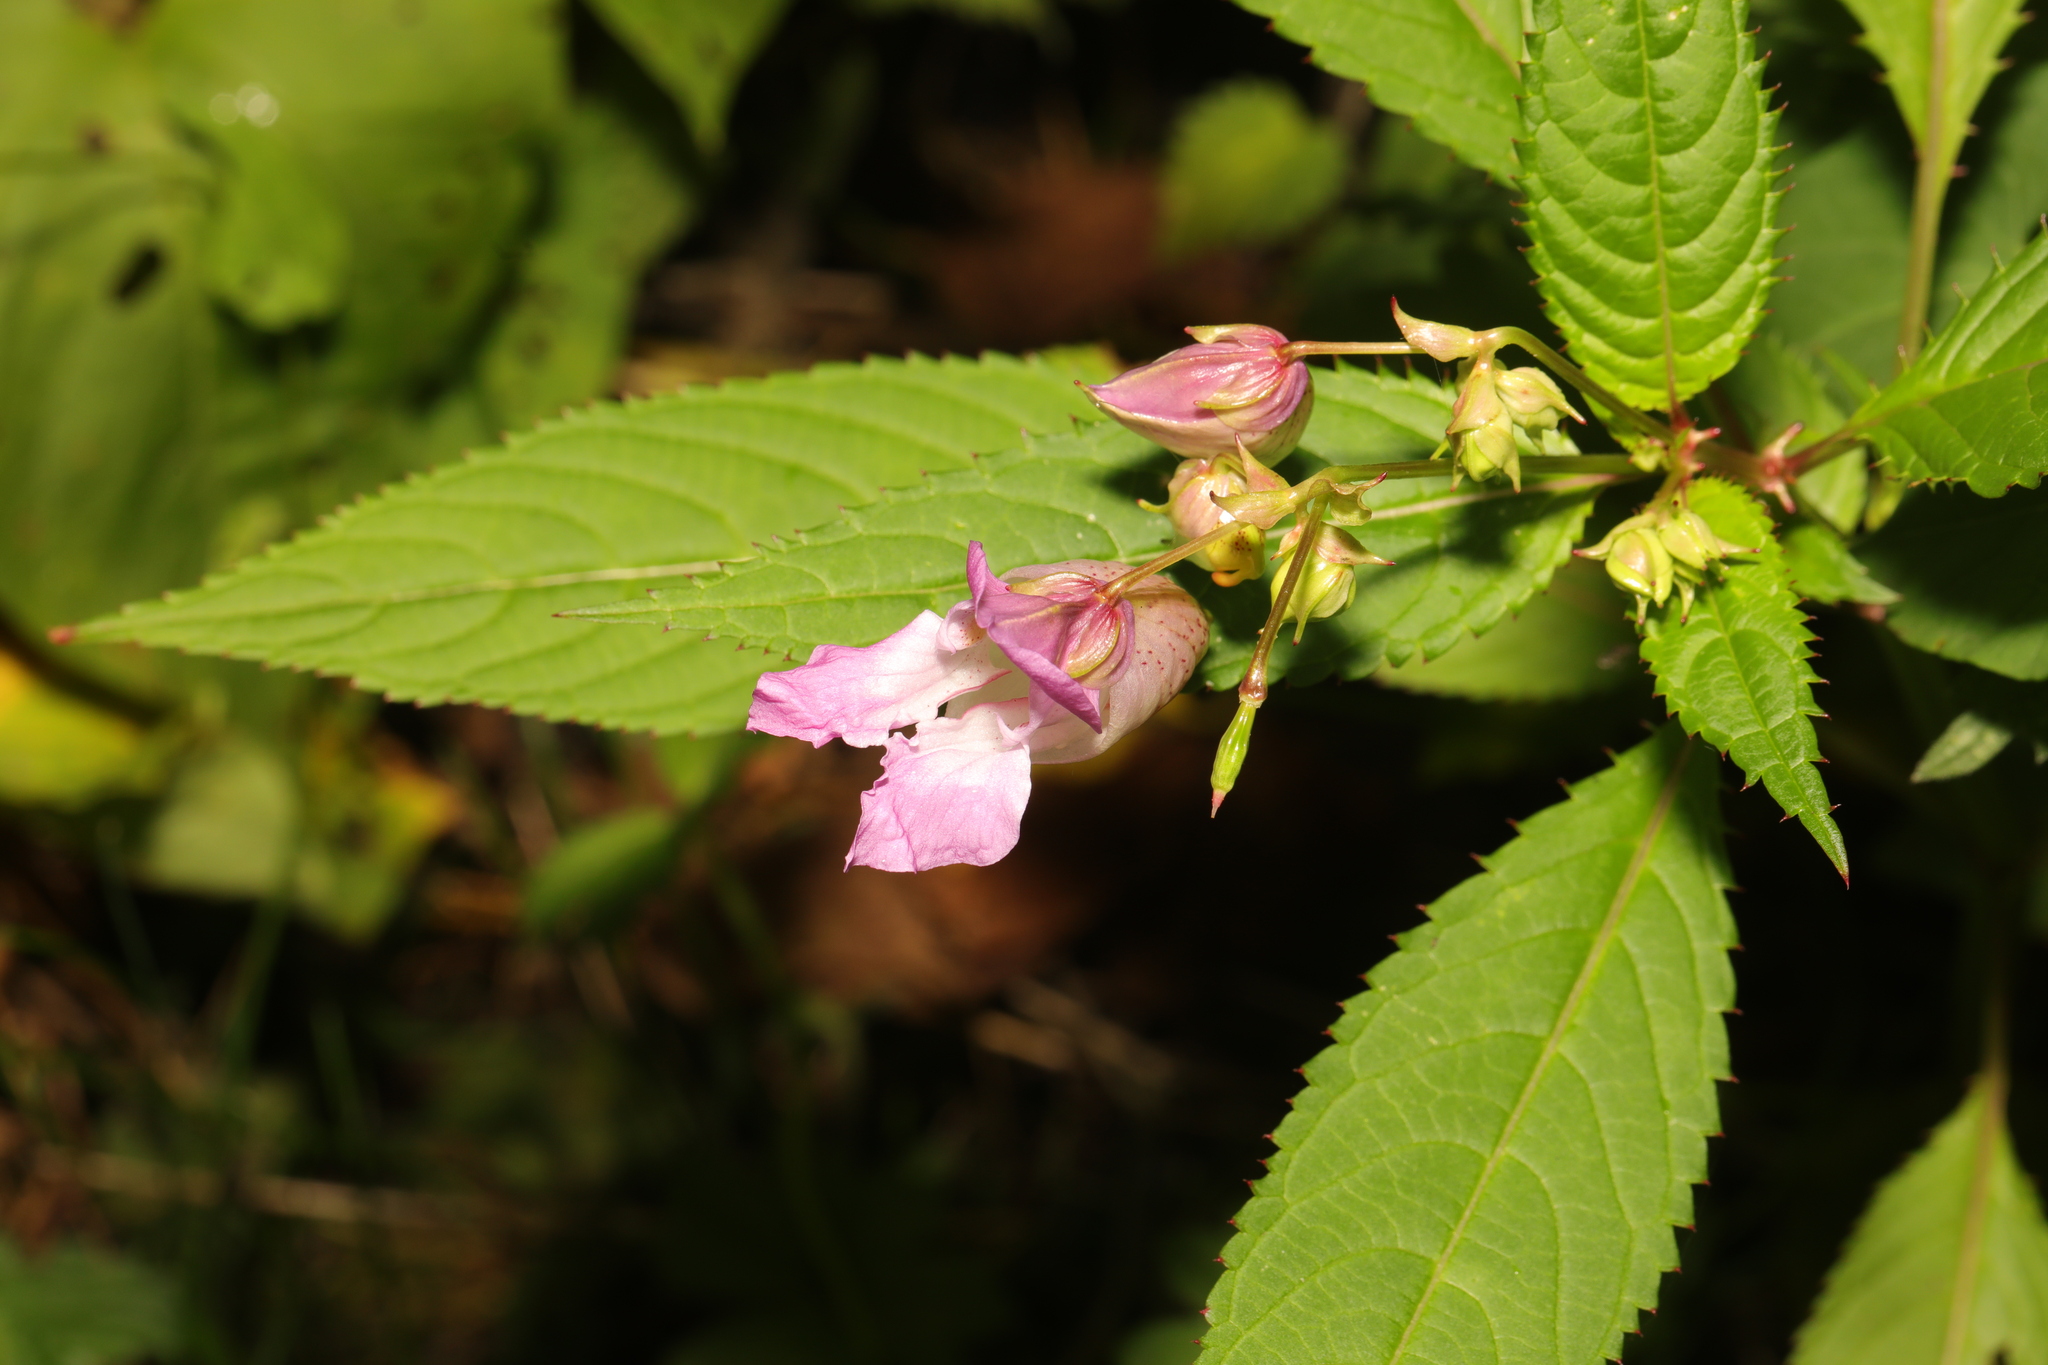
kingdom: Plantae
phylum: Tracheophyta
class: Magnoliopsida
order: Ericales
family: Balsaminaceae
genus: Impatiens
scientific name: Impatiens glandulifera
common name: Himalayan balsam
